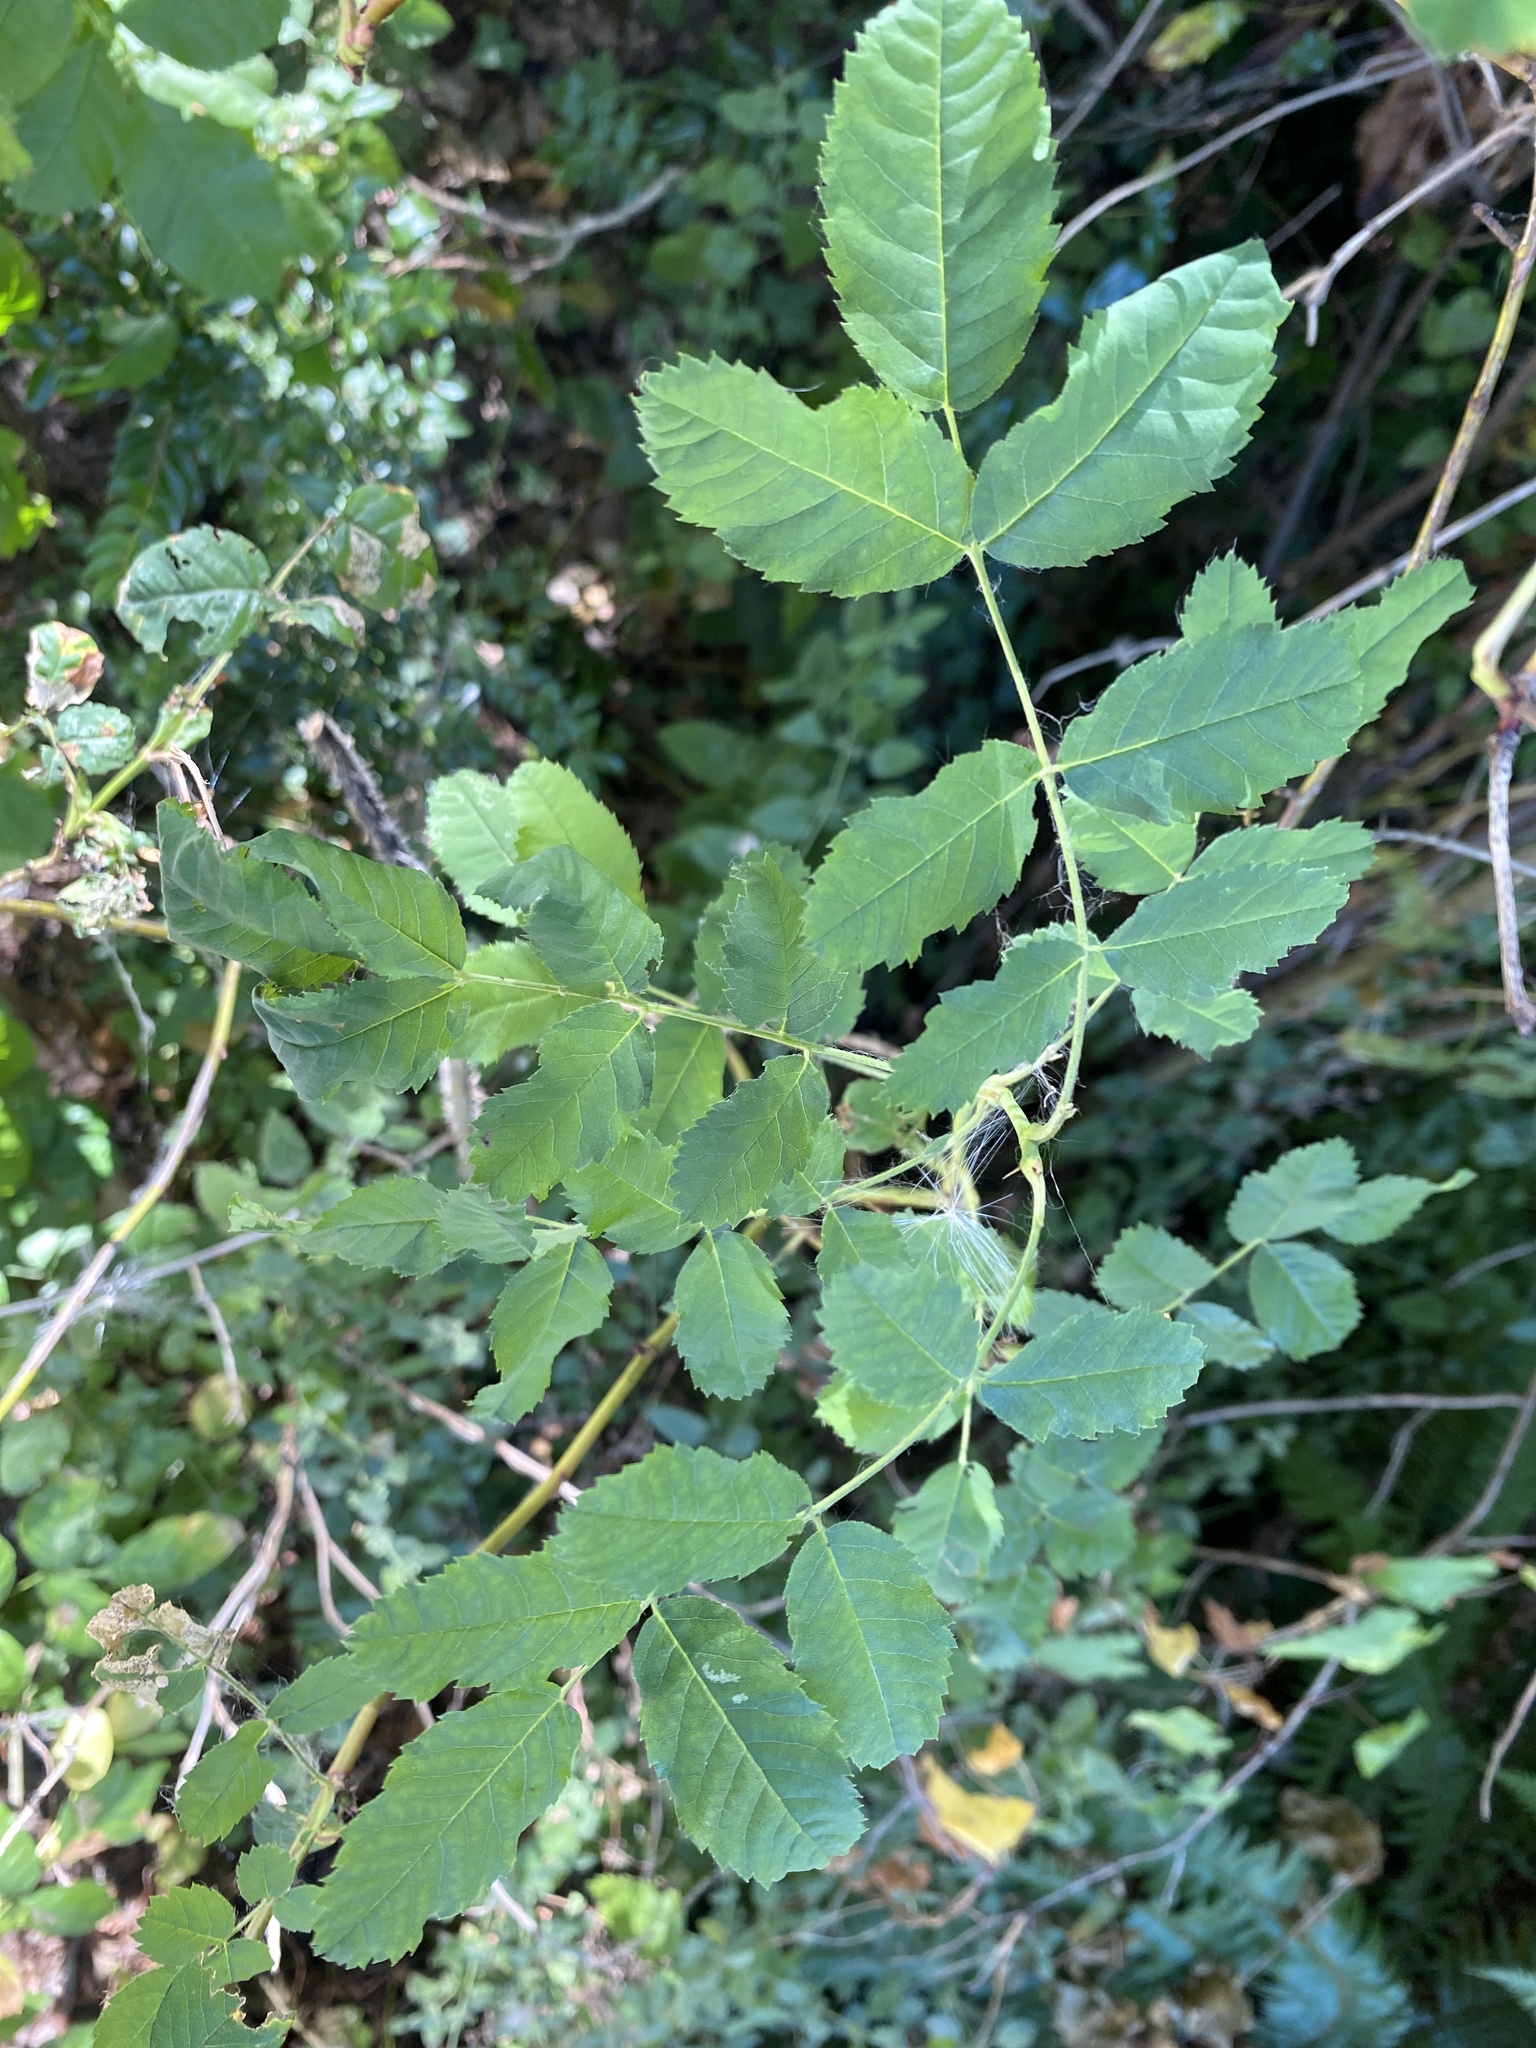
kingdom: Plantae
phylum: Tracheophyta
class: Magnoliopsida
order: Rosales
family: Rosaceae
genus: Rosa
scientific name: Rosa nutkana
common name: Nootka rose
